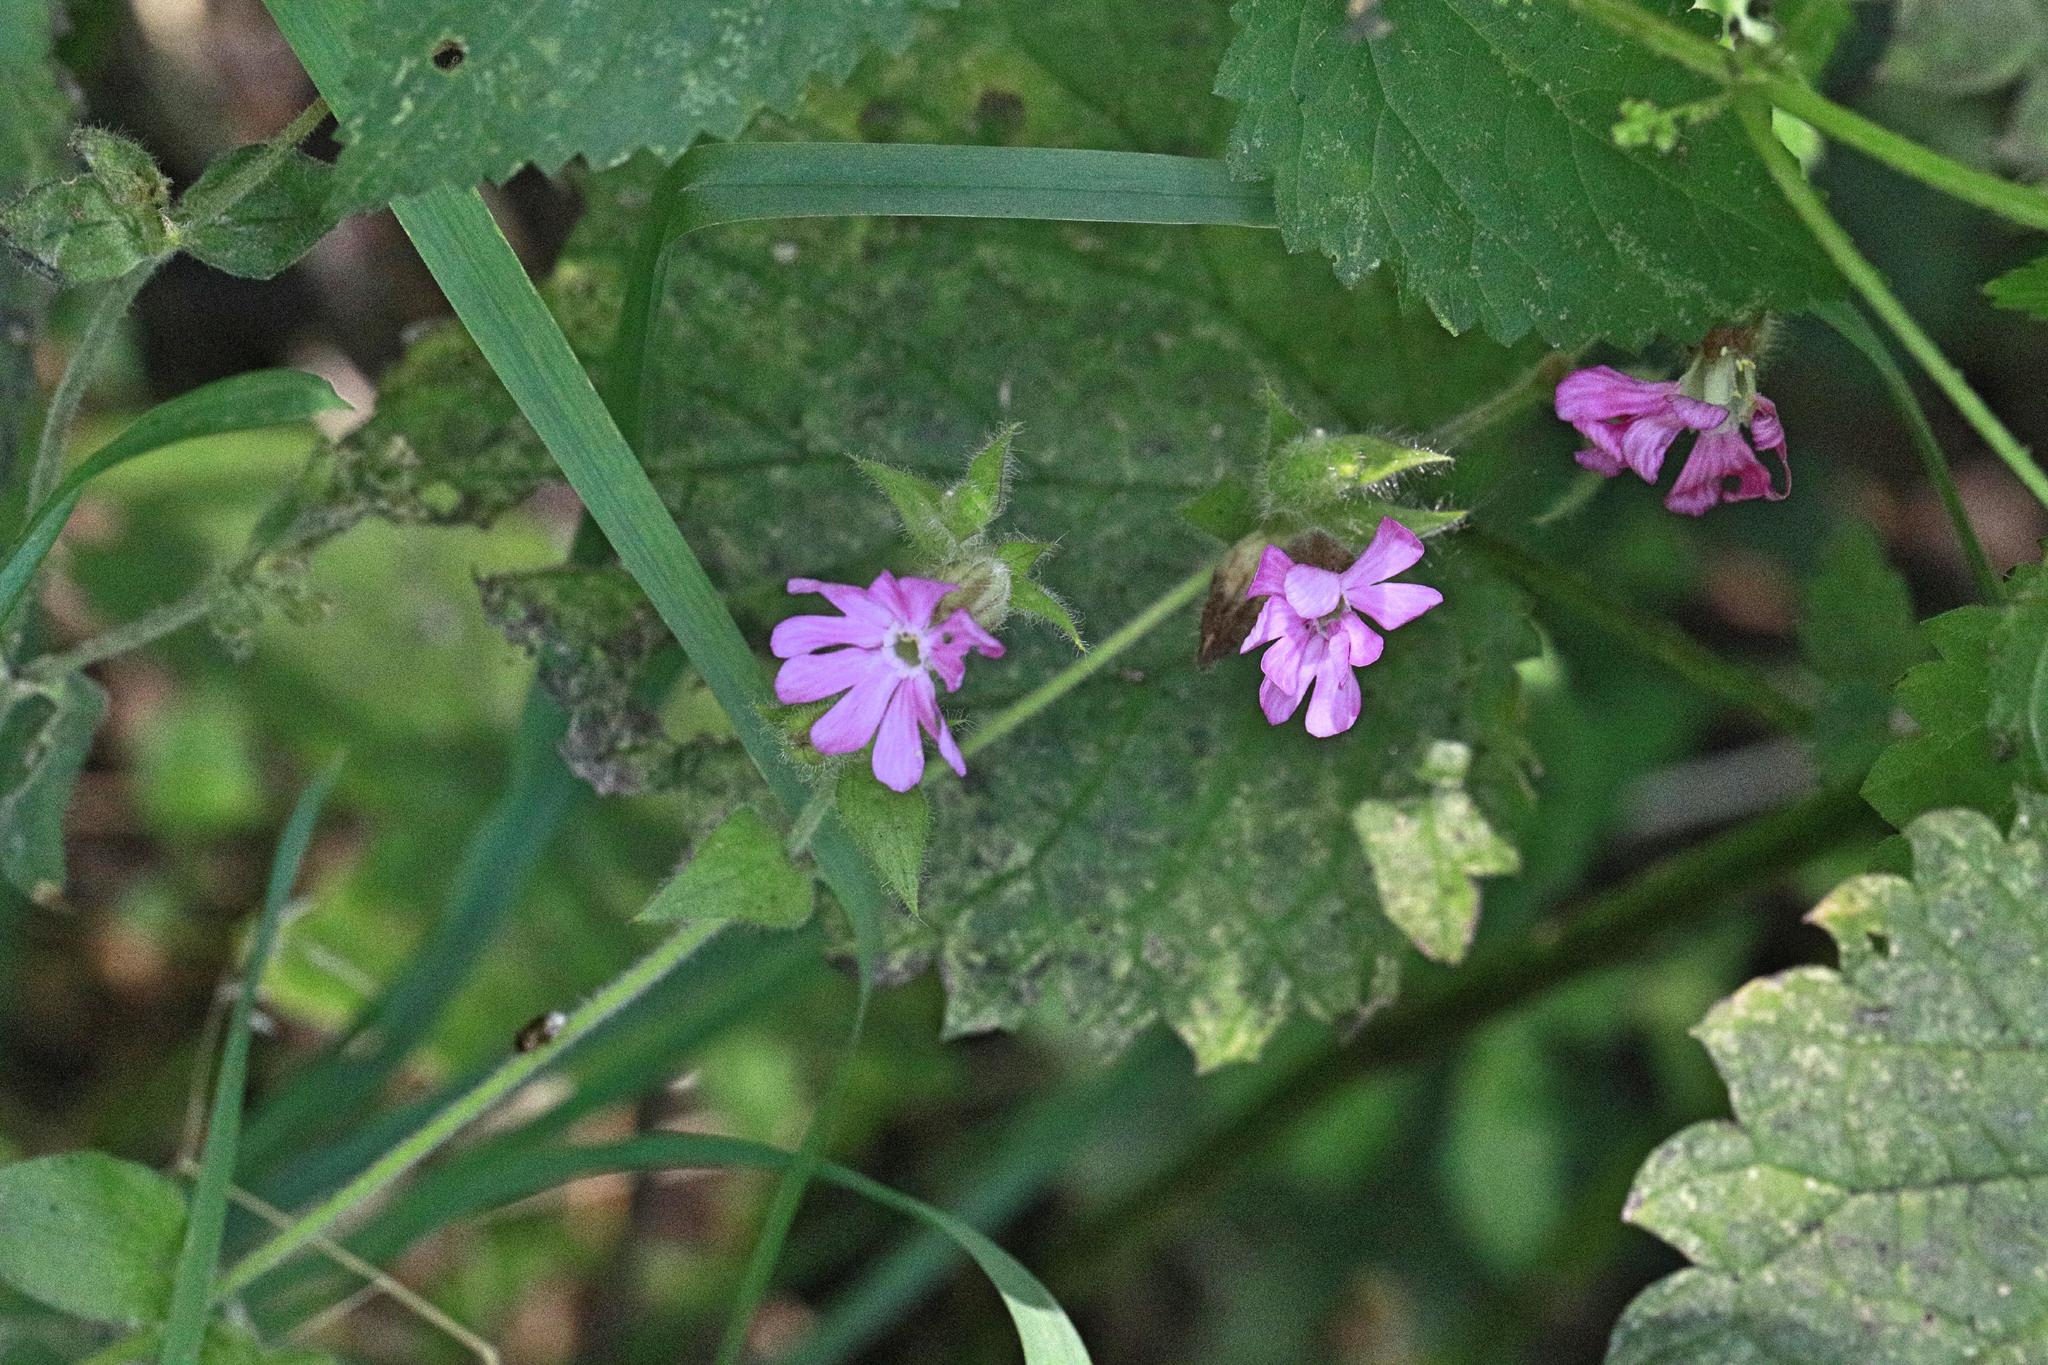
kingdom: Plantae
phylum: Tracheophyta
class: Magnoliopsida
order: Caryophyllales
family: Caryophyllaceae
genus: Silene
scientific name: Silene dioica
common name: Red campion
